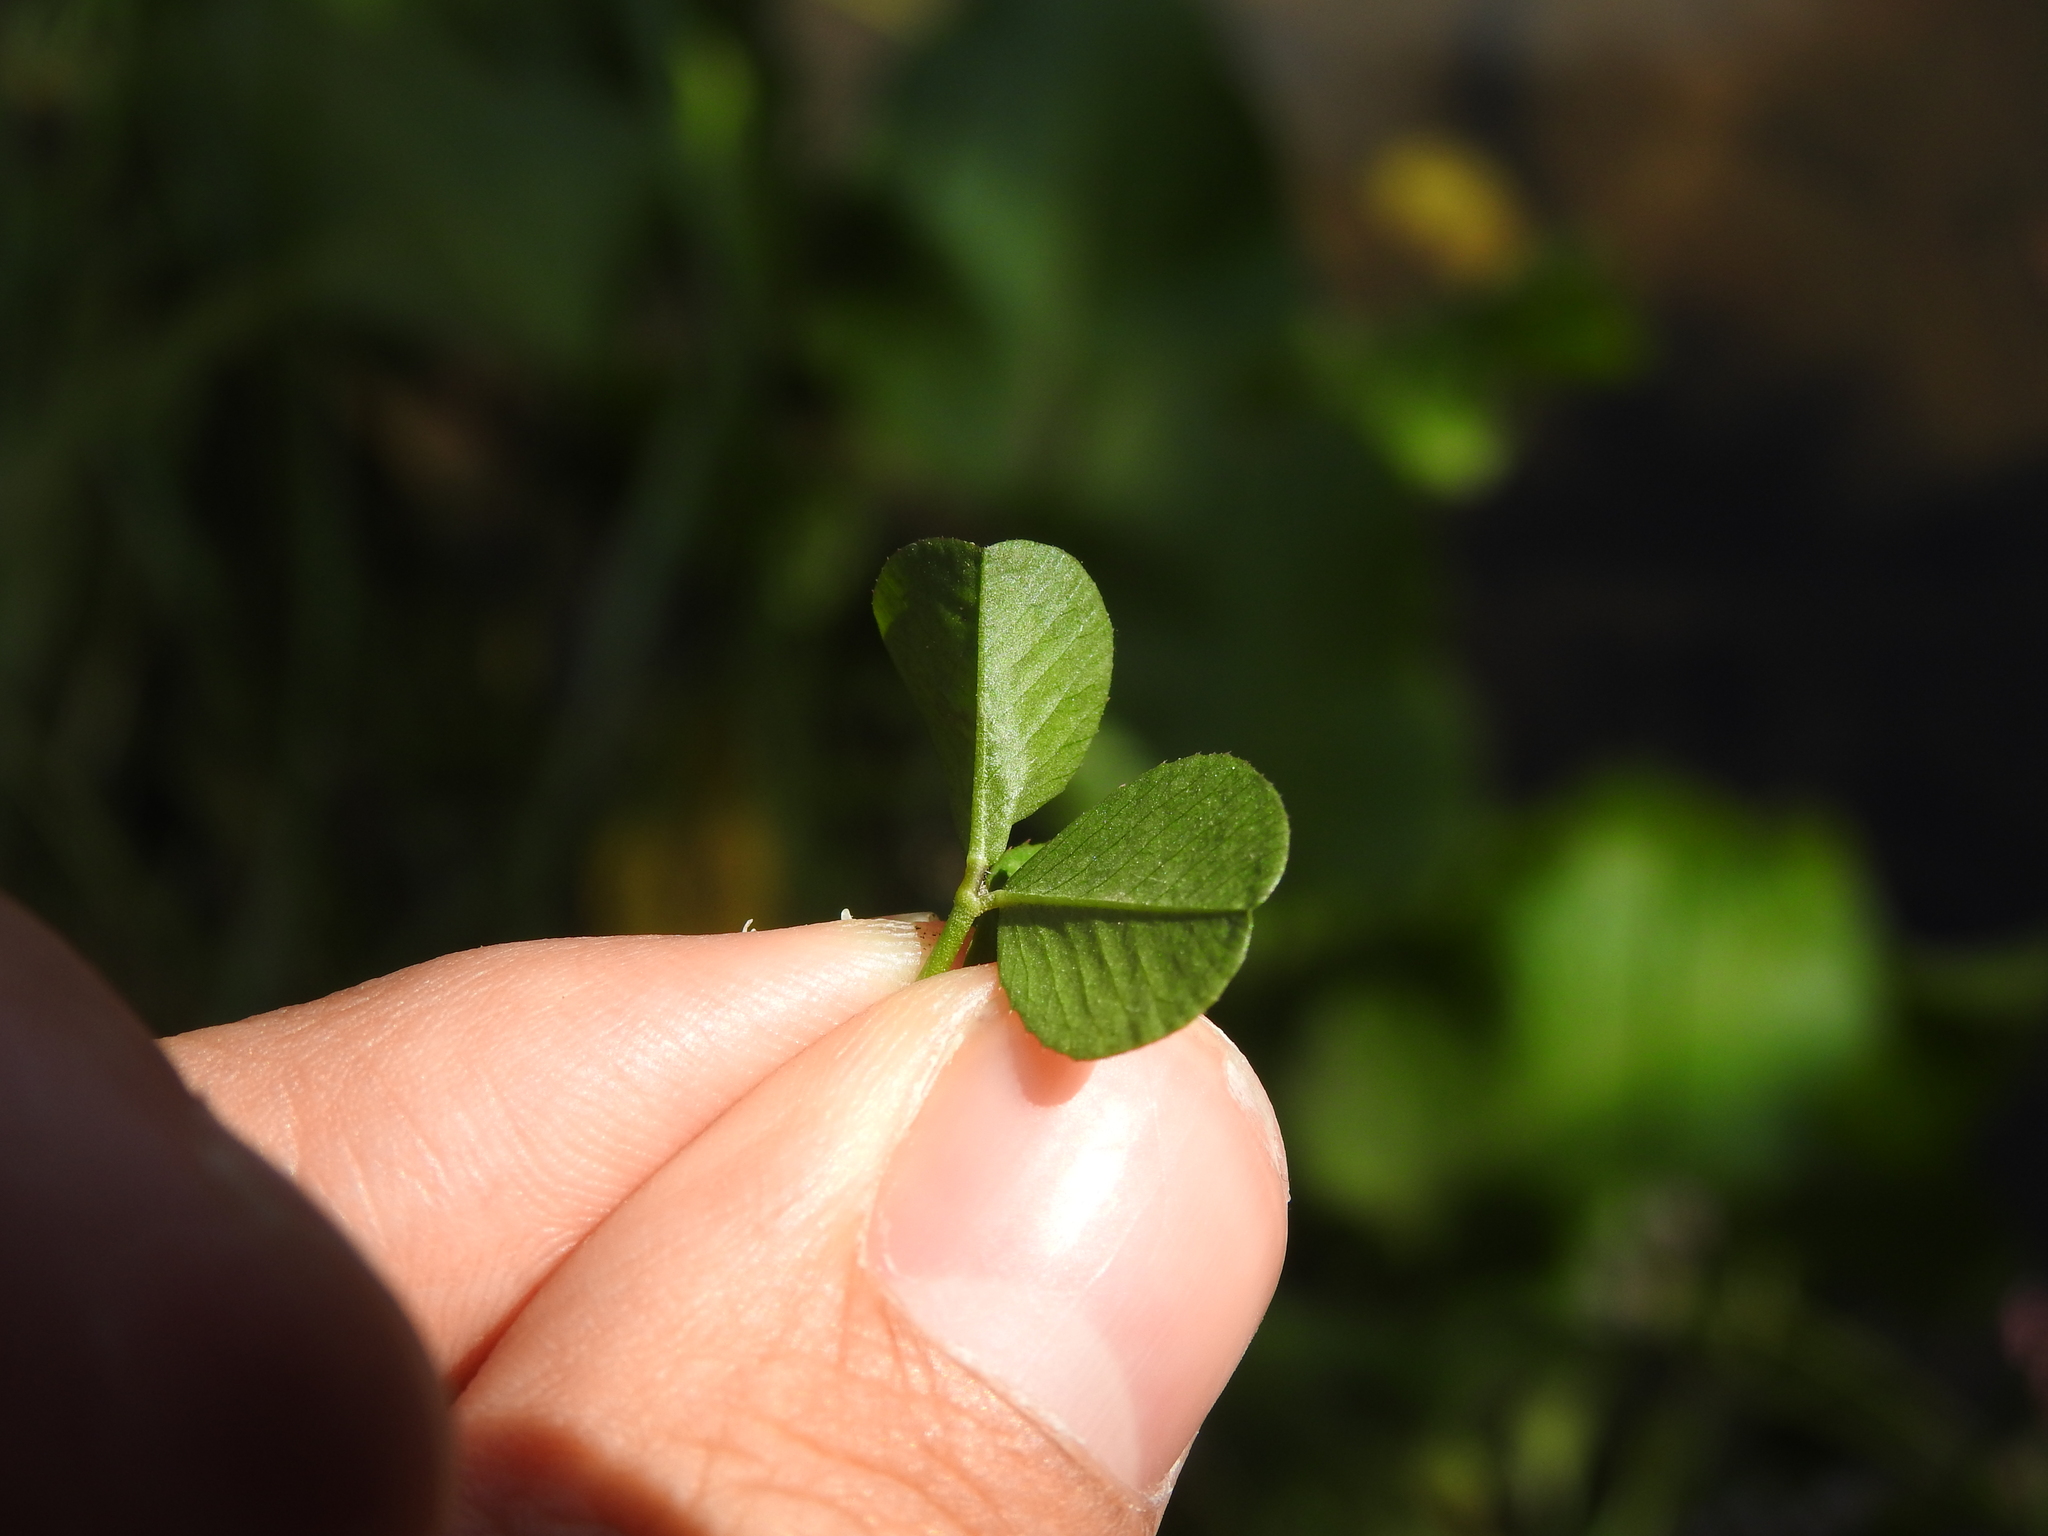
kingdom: Animalia
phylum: Arthropoda
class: Insecta
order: Lepidoptera
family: Gracillariidae
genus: Porphyrosela
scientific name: Porphyrosela minuta
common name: Leaf miner moth
